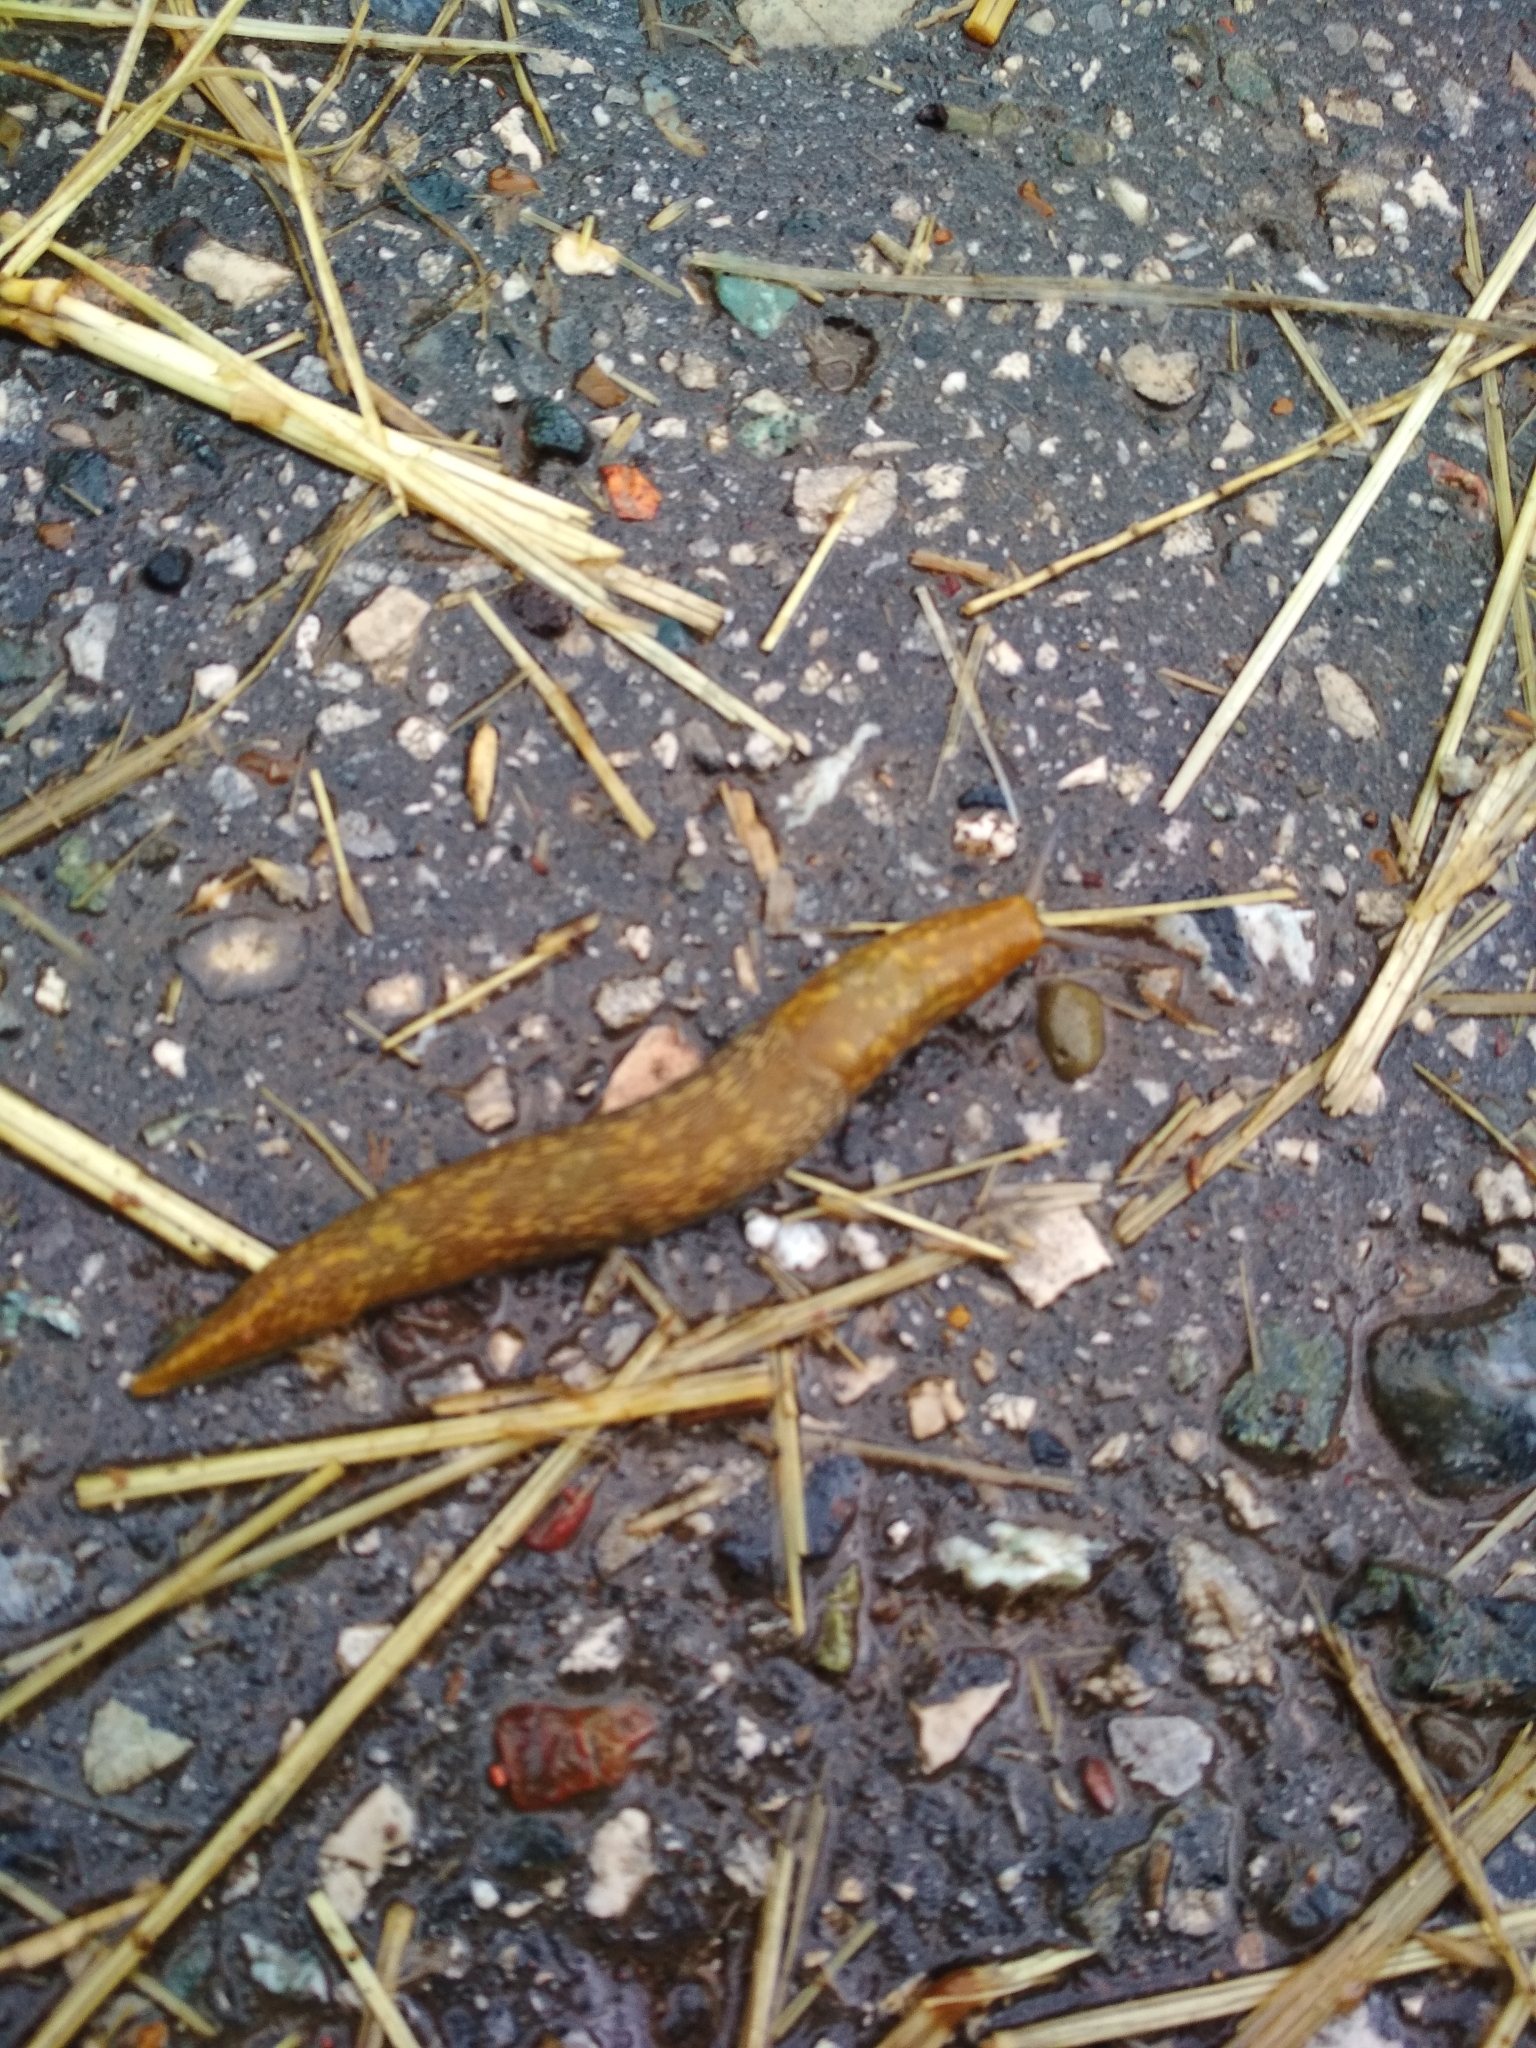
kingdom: Animalia
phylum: Mollusca
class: Gastropoda
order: Stylommatophora
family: Limacidae
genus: Limacus
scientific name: Limacus flavus
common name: Yellow gardenslug
